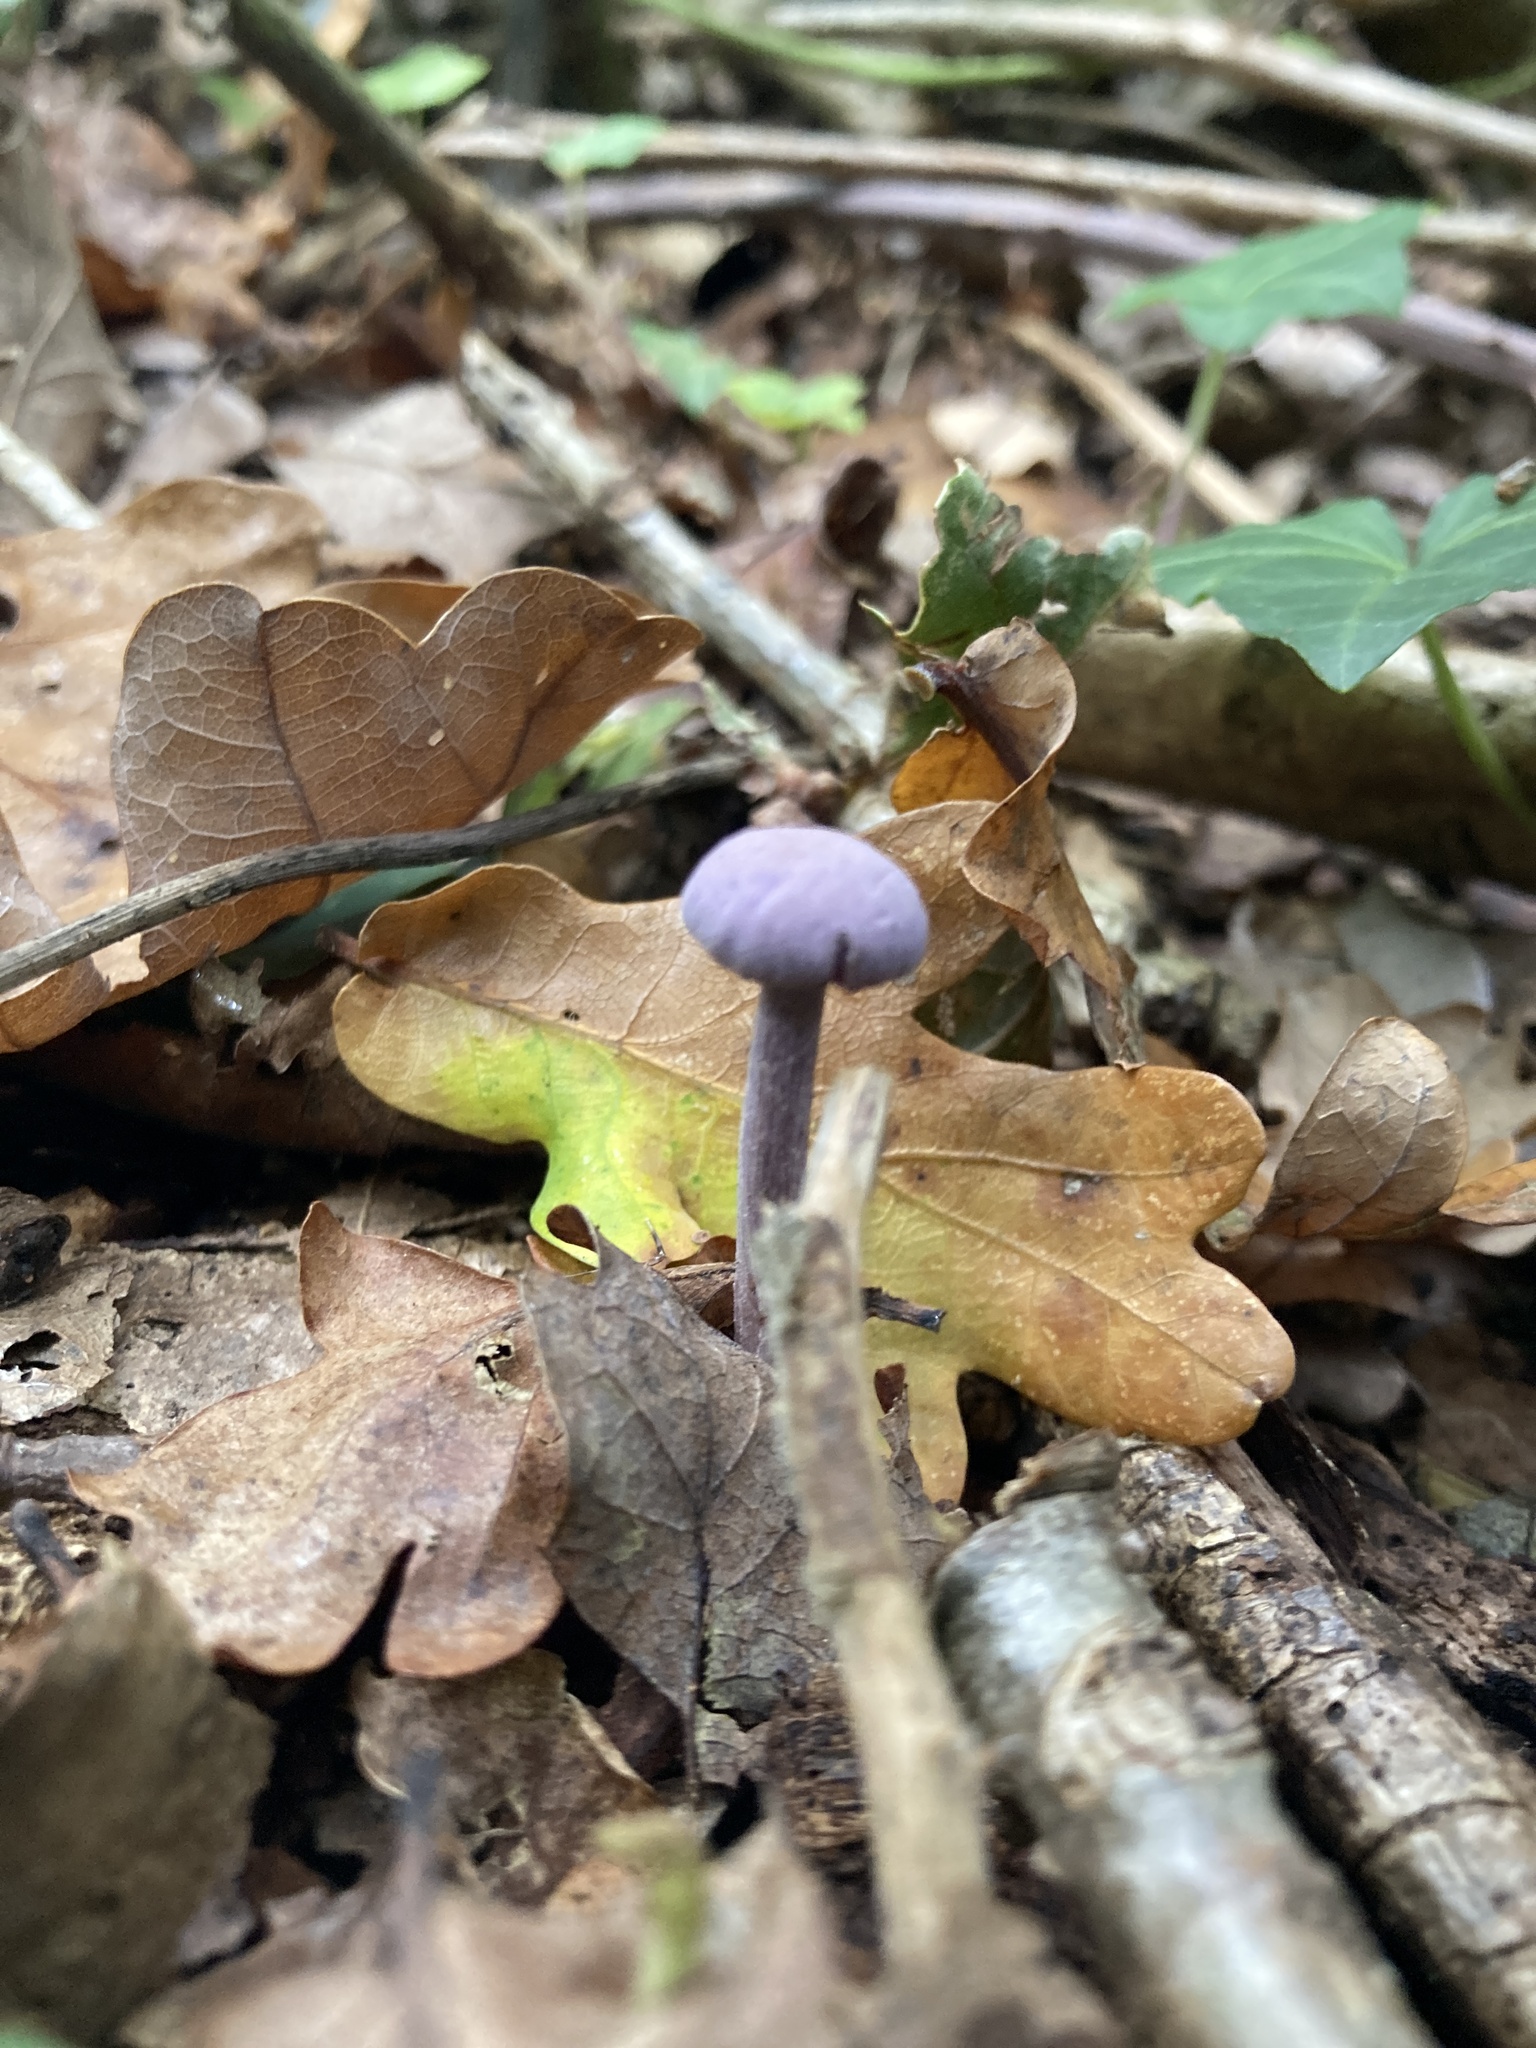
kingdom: Fungi
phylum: Basidiomycota
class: Agaricomycetes
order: Agaricales
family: Hydnangiaceae
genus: Laccaria
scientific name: Laccaria amethystina
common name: Amethyst deceiver
